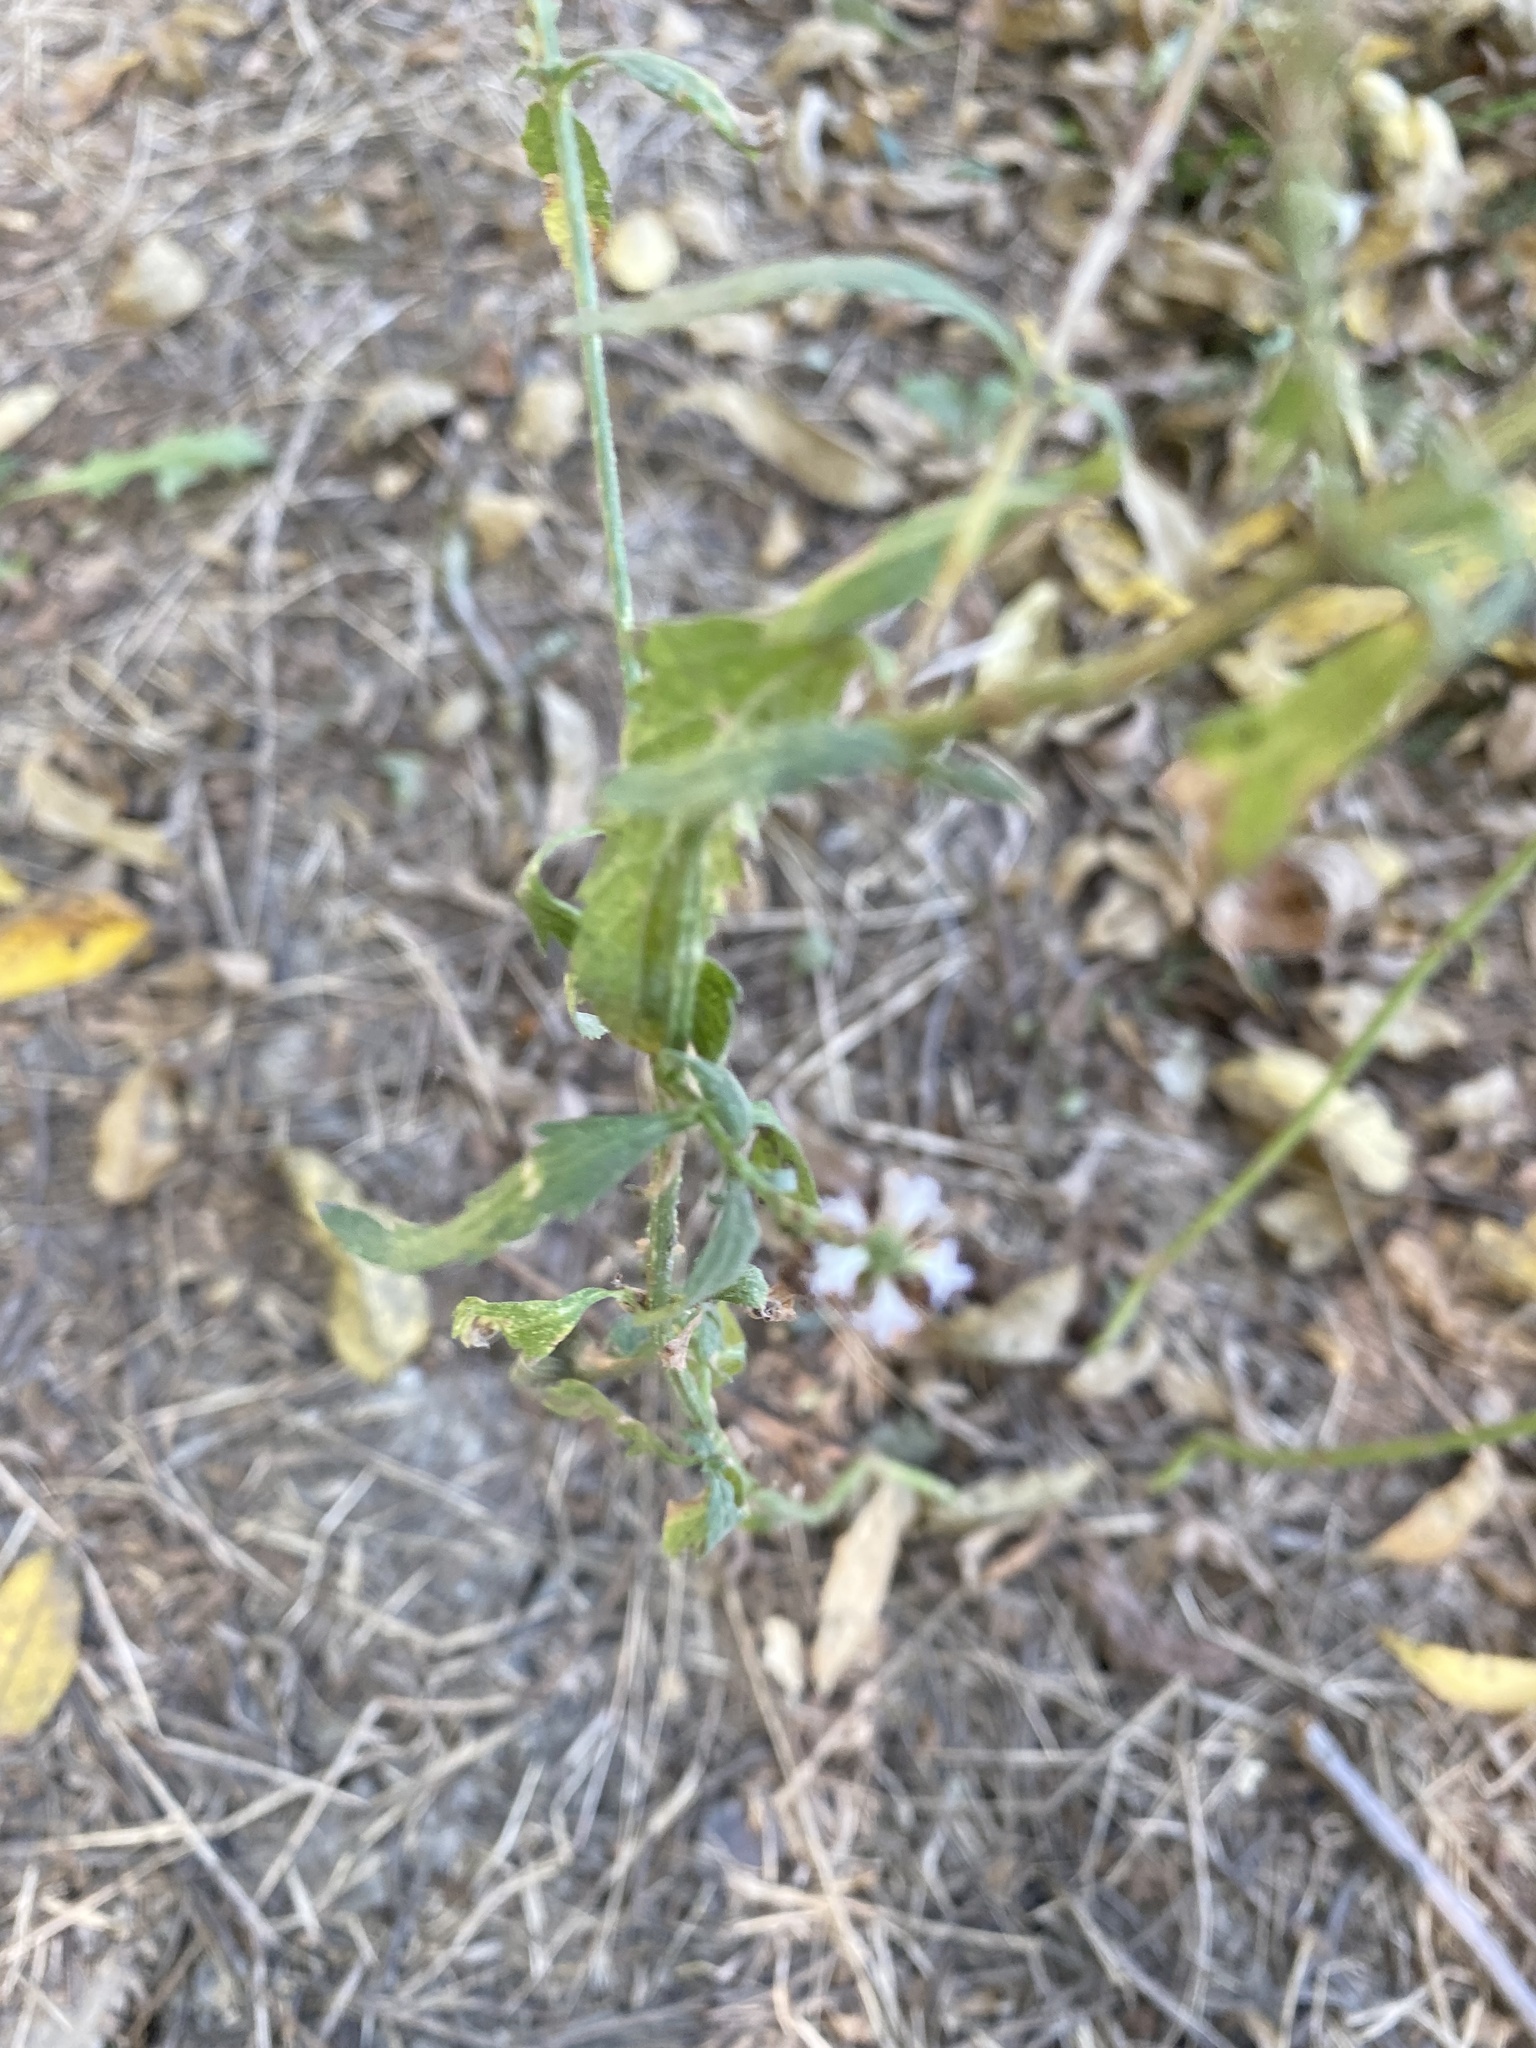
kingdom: Plantae
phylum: Tracheophyta
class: Magnoliopsida
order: Lamiales
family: Verbenaceae
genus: Verbena
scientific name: Verbena officinalis
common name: Vervain
